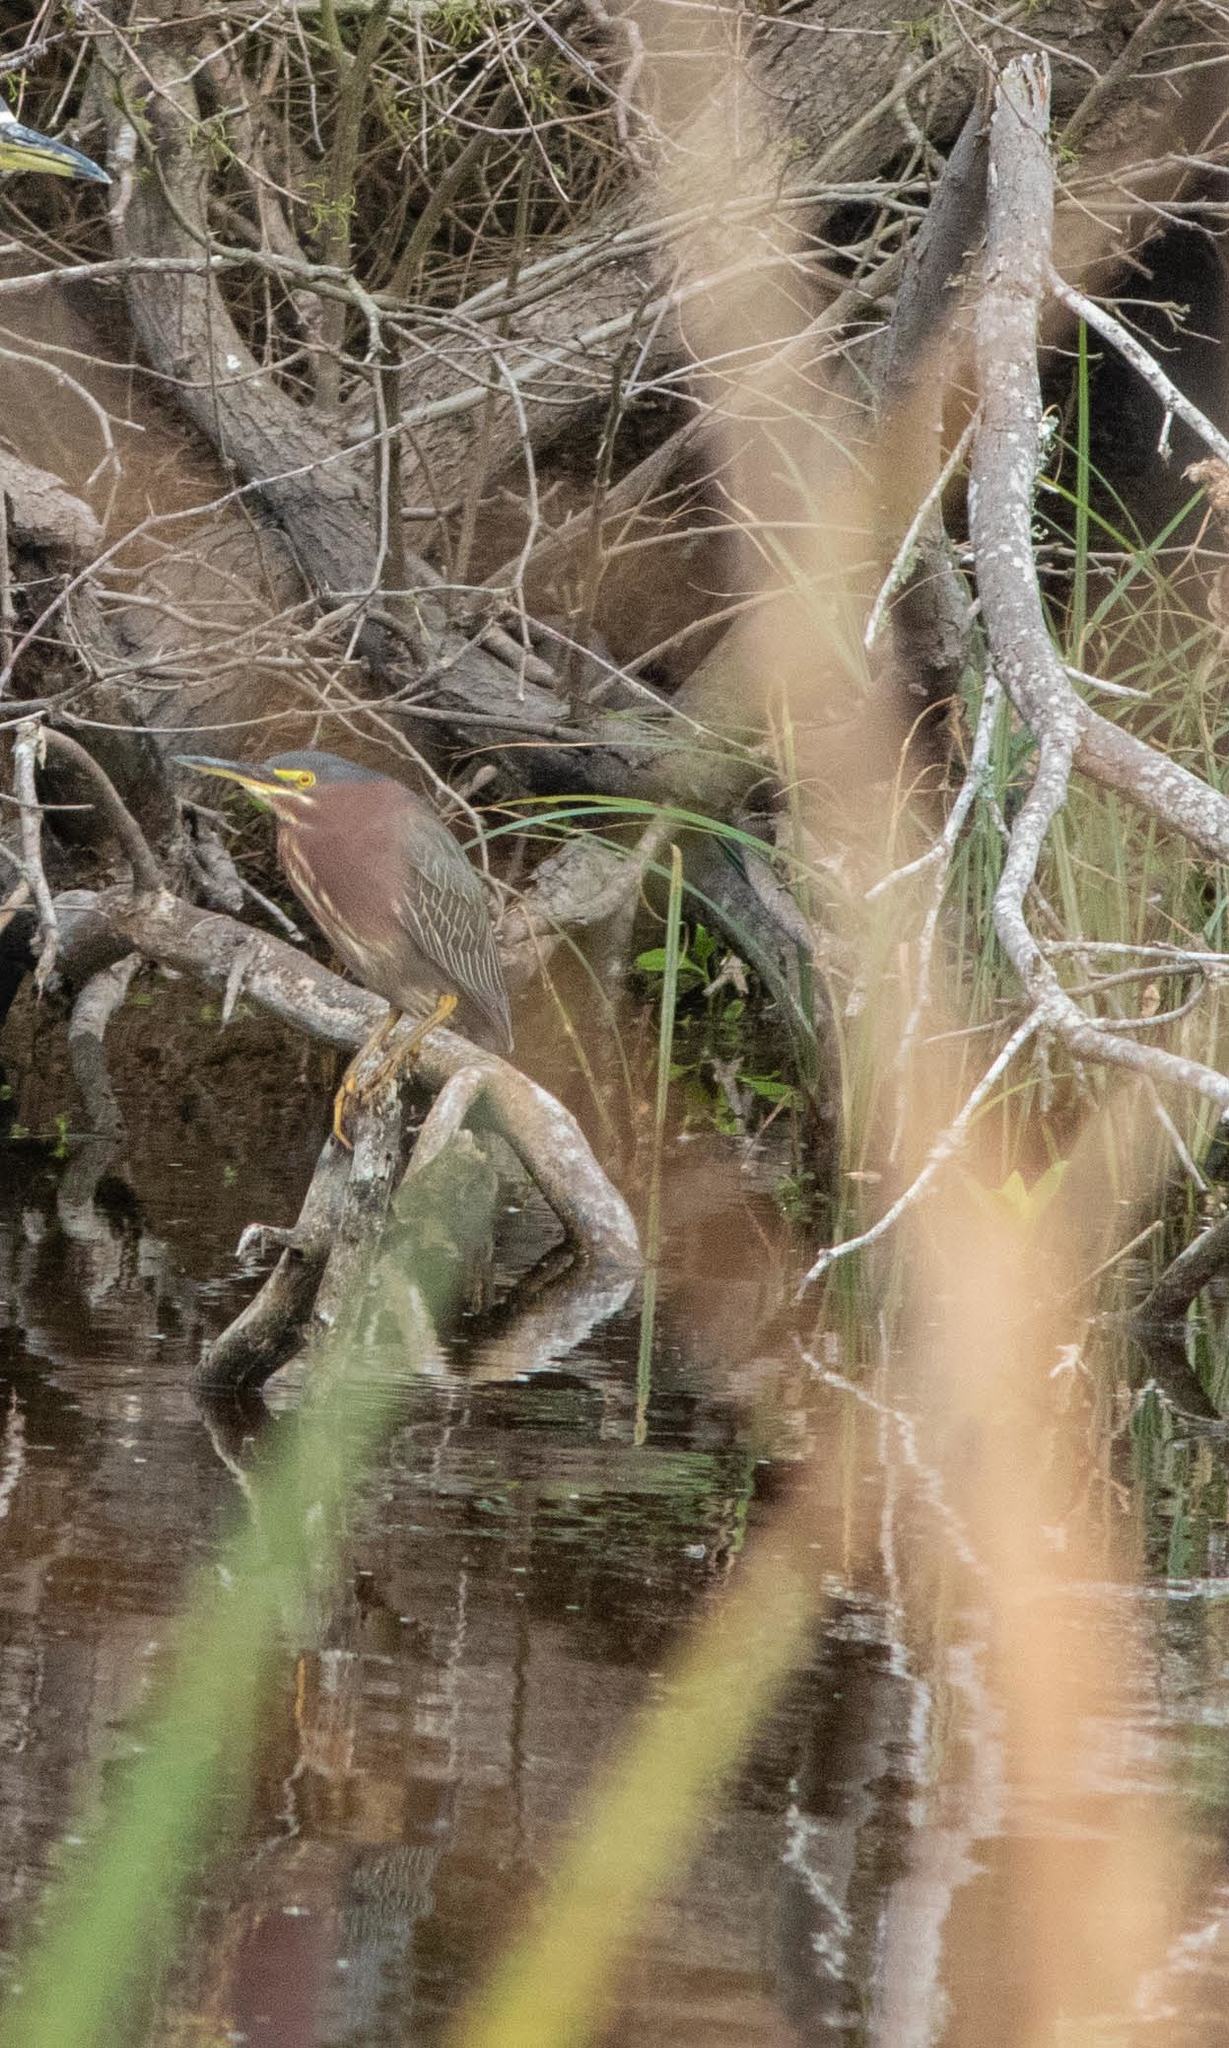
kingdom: Animalia
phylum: Chordata
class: Aves
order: Pelecaniformes
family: Ardeidae
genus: Butorides
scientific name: Butorides virescens
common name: Green heron
